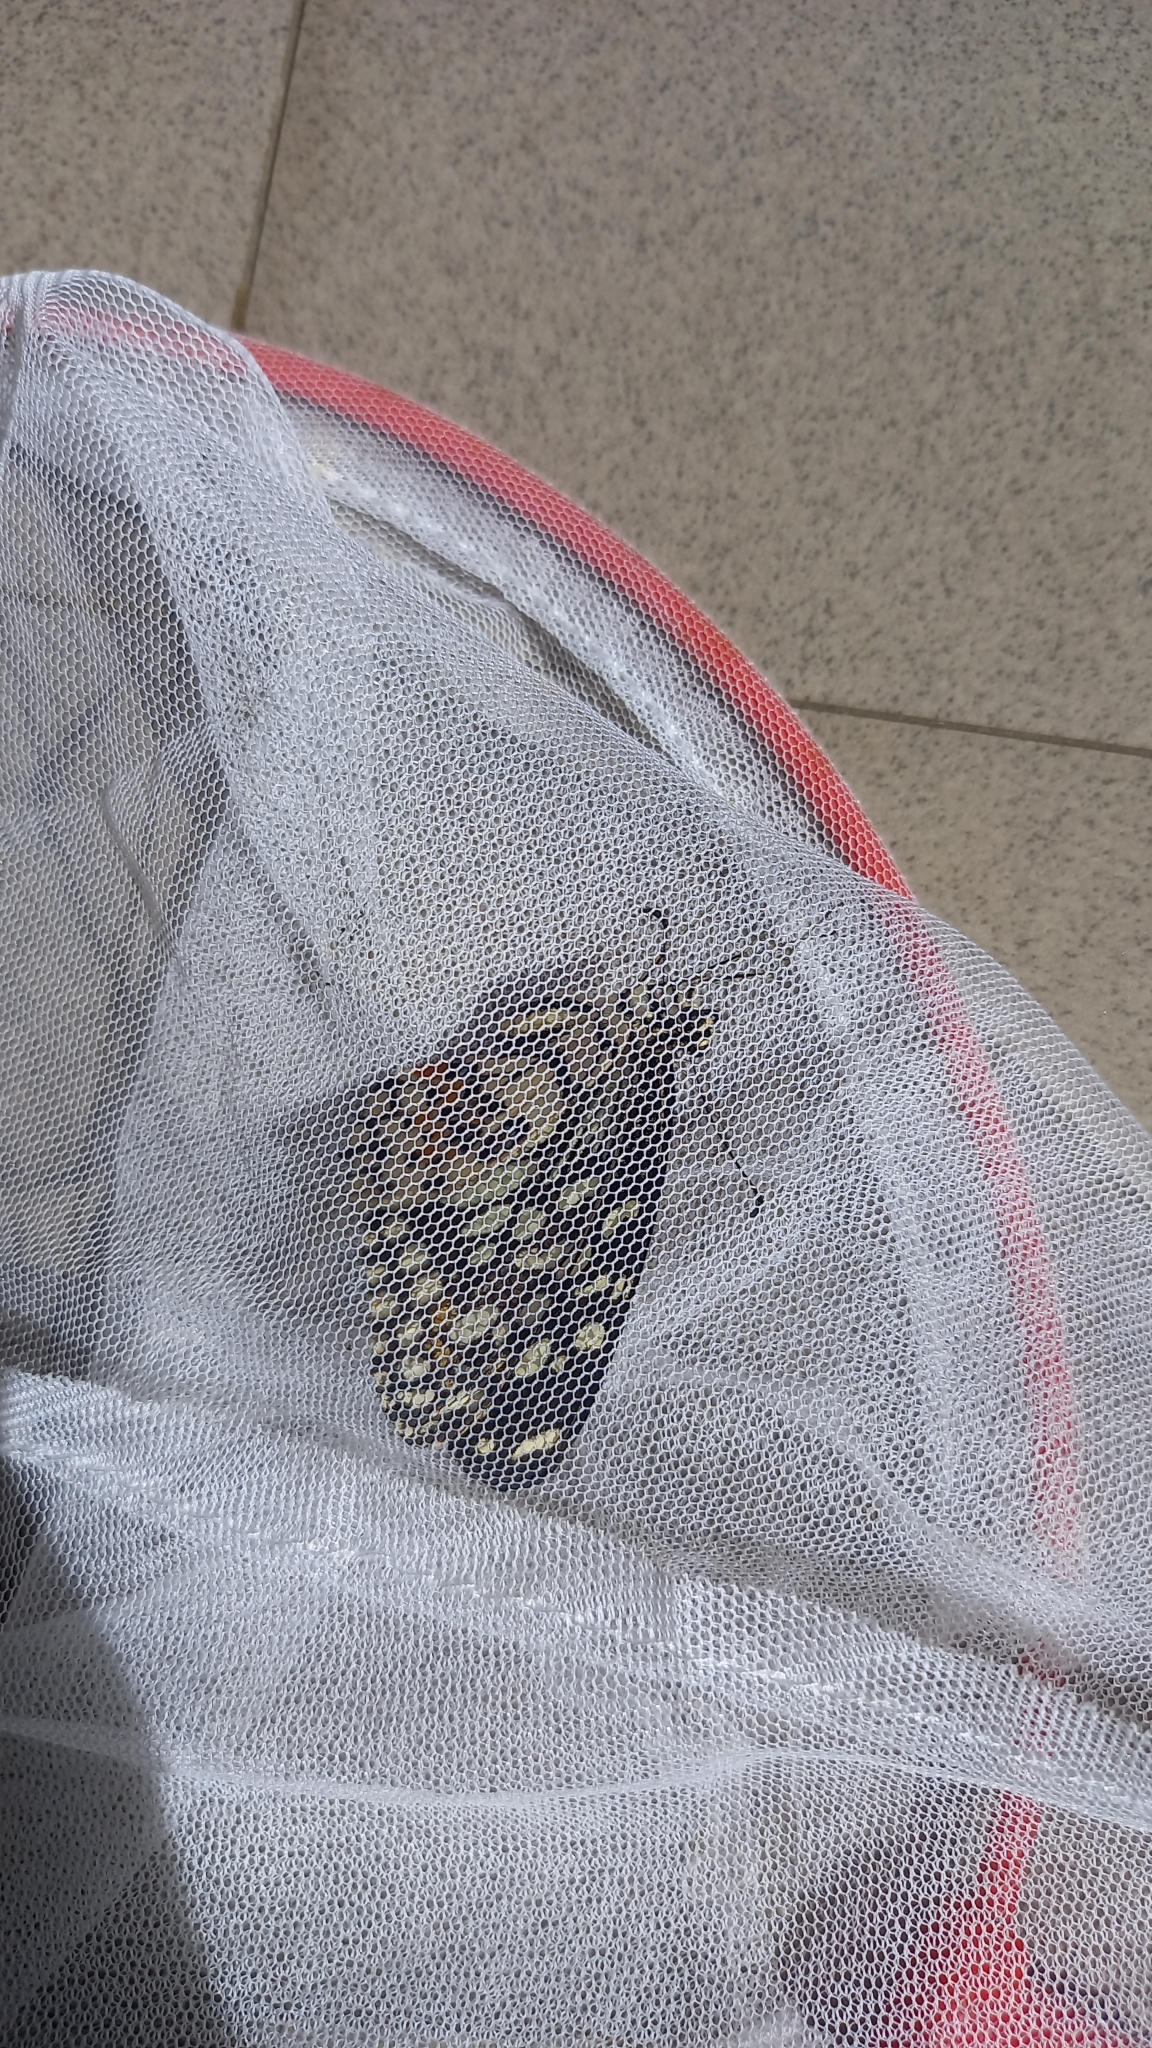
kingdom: Animalia
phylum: Arthropoda
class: Insecta
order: Lepidoptera
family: Papilionidae
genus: Papilio
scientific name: Papilio demoleus
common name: Lime butterfly
